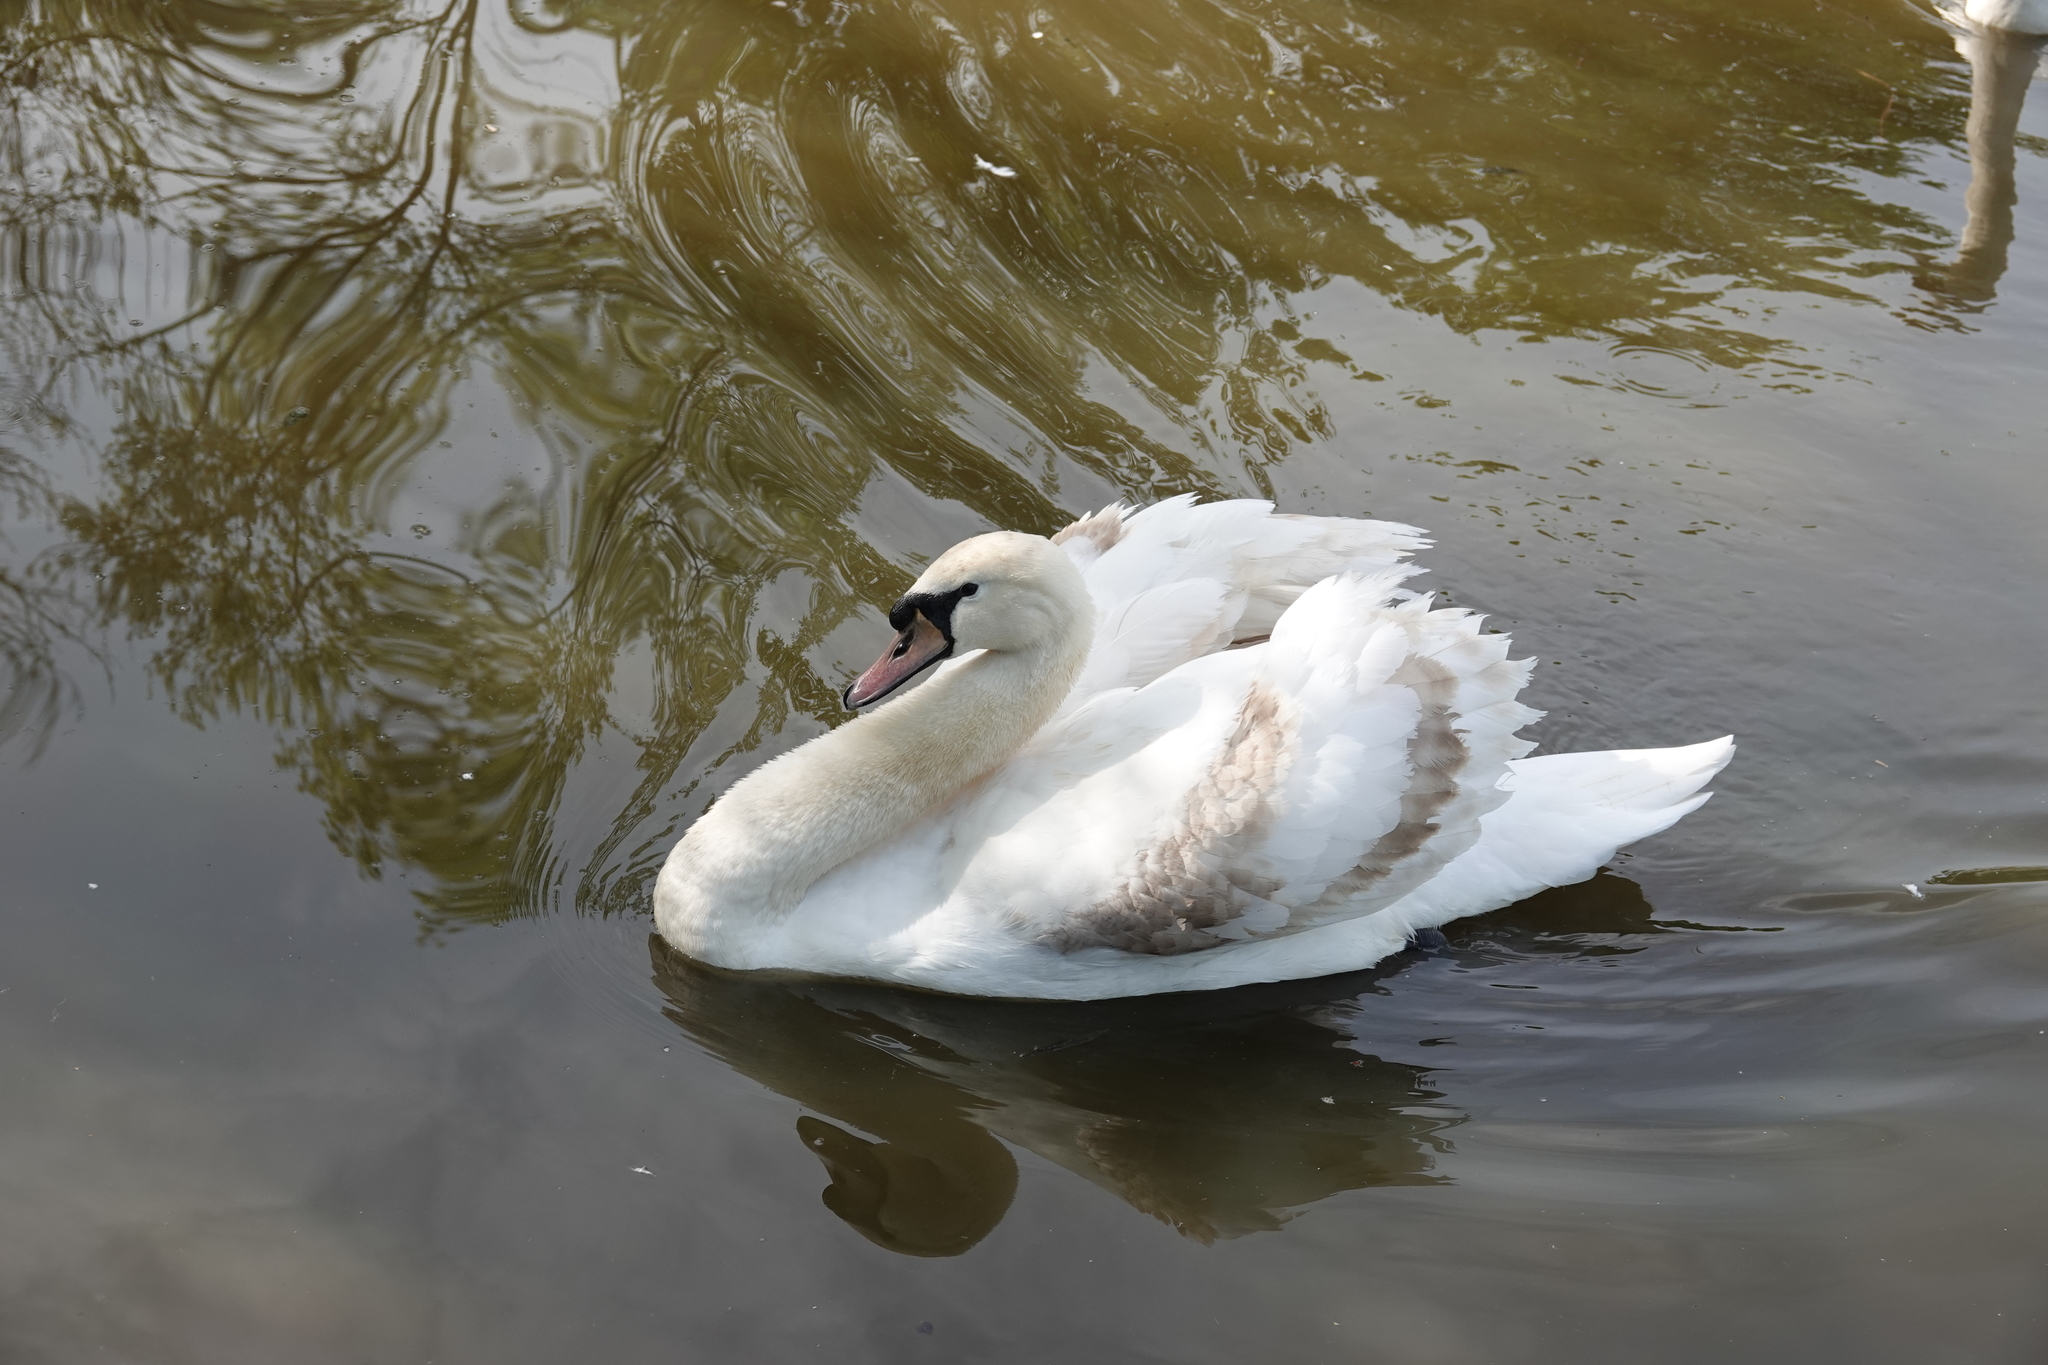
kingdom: Animalia
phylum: Chordata
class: Aves
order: Anseriformes
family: Anatidae
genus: Cygnus
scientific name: Cygnus olor
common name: Mute swan
